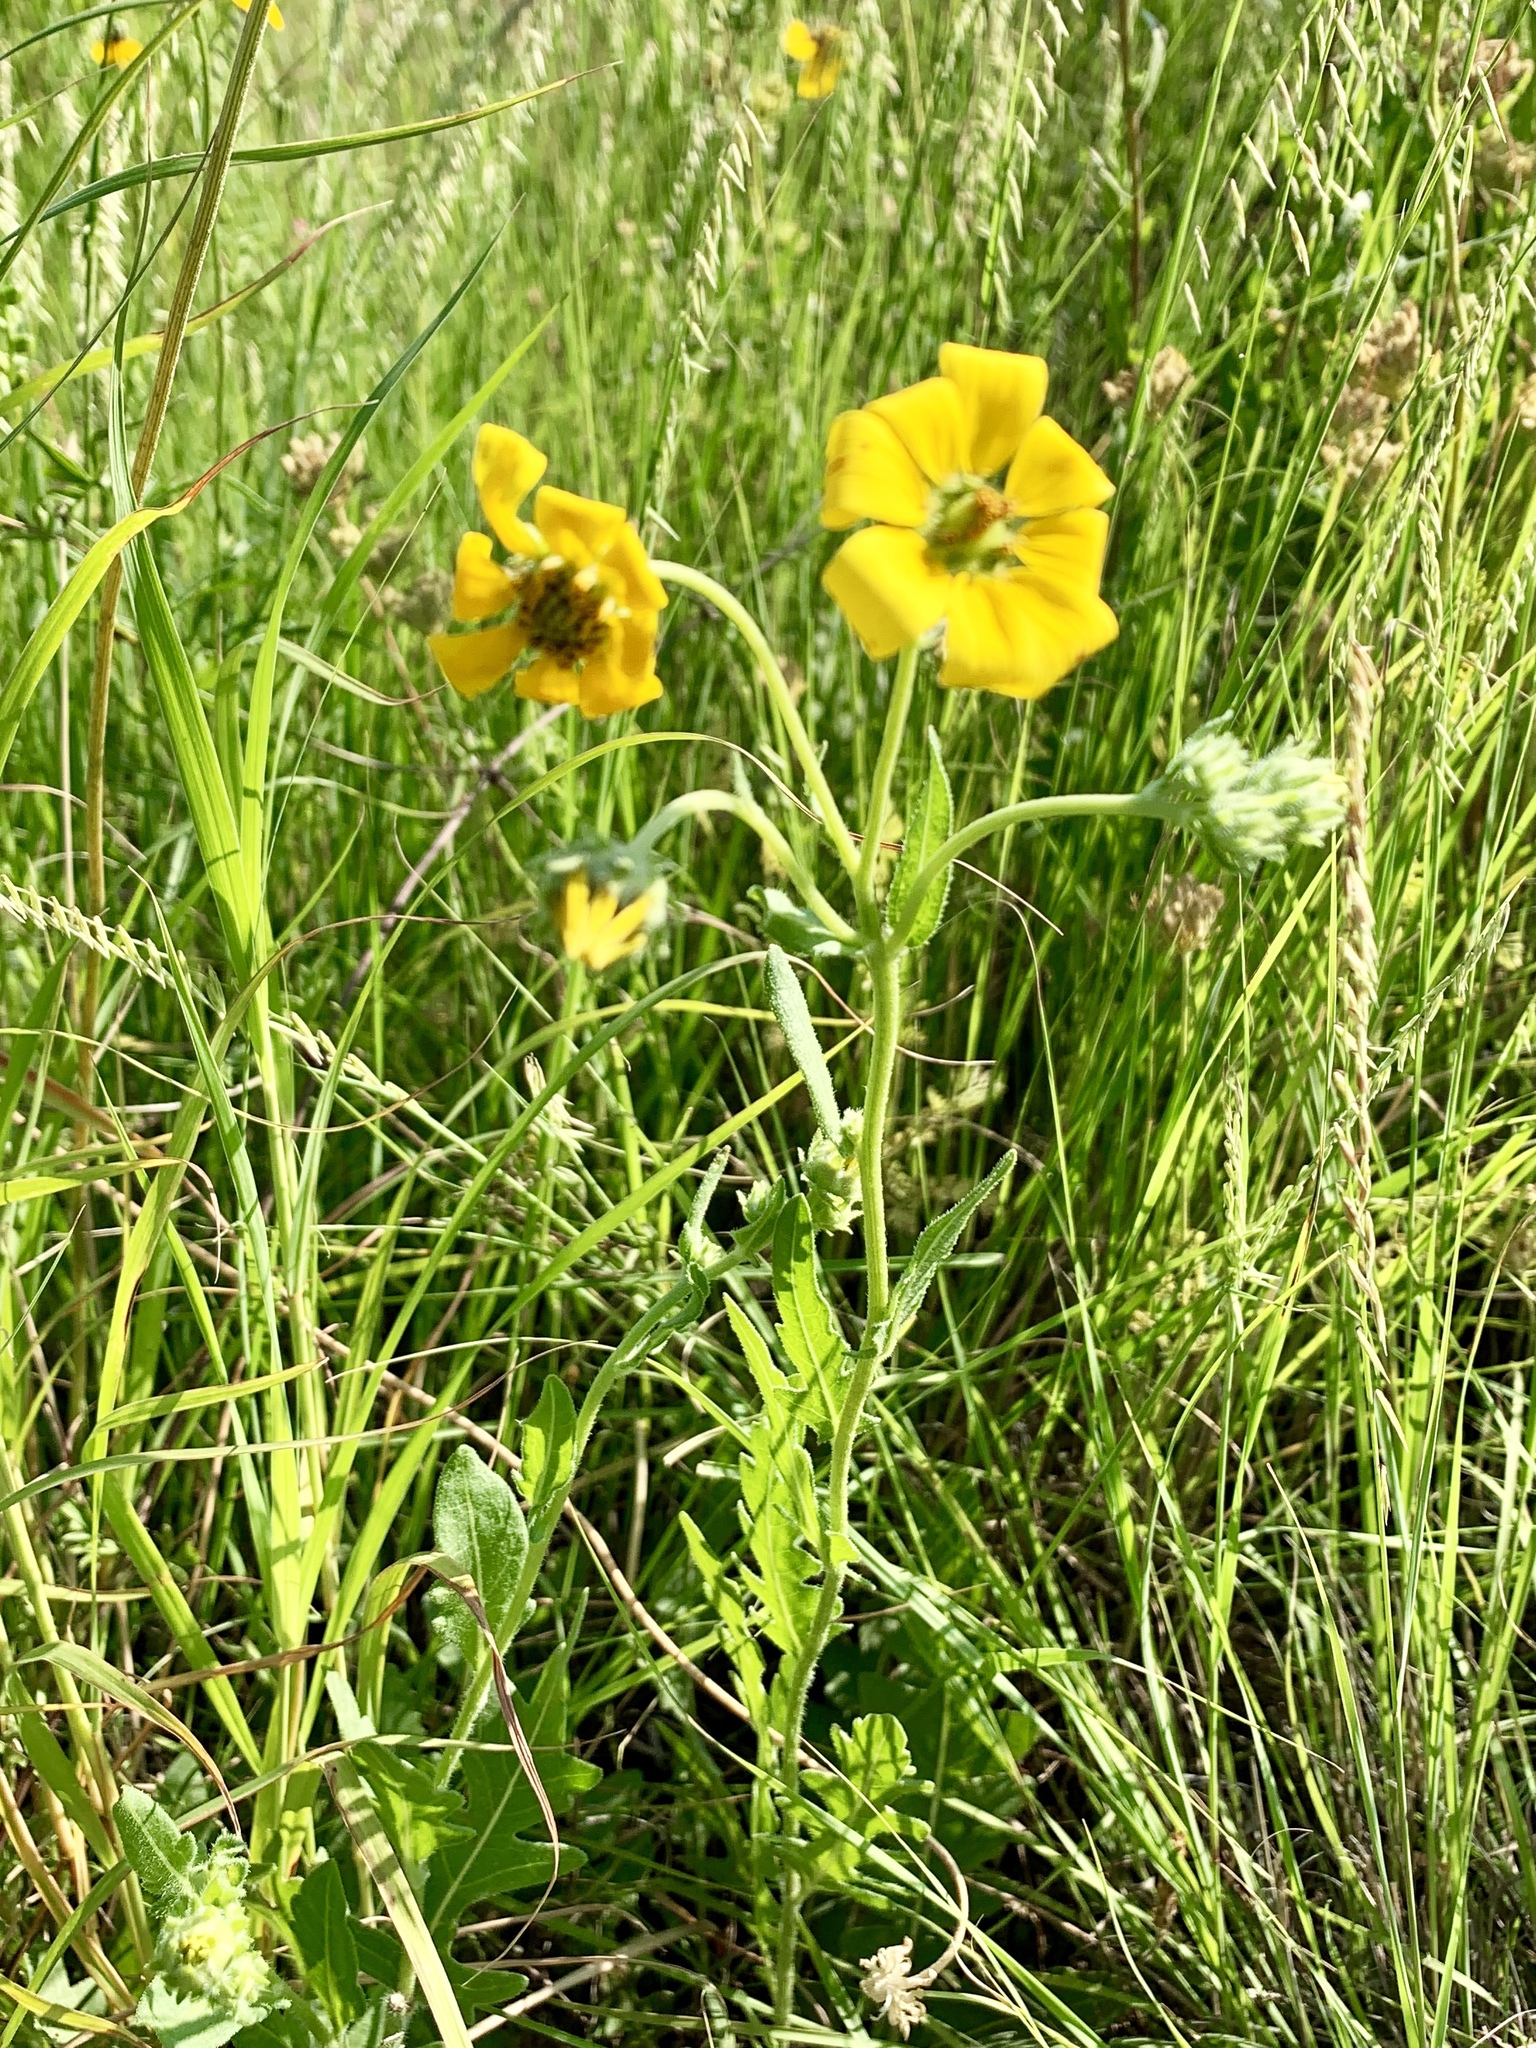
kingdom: Plantae
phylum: Tracheophyta
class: Magnoliopsida
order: Asterales
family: Asteraceae
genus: Engelmannia
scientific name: Engelmannia peristenia
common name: Engelmann's daisy
